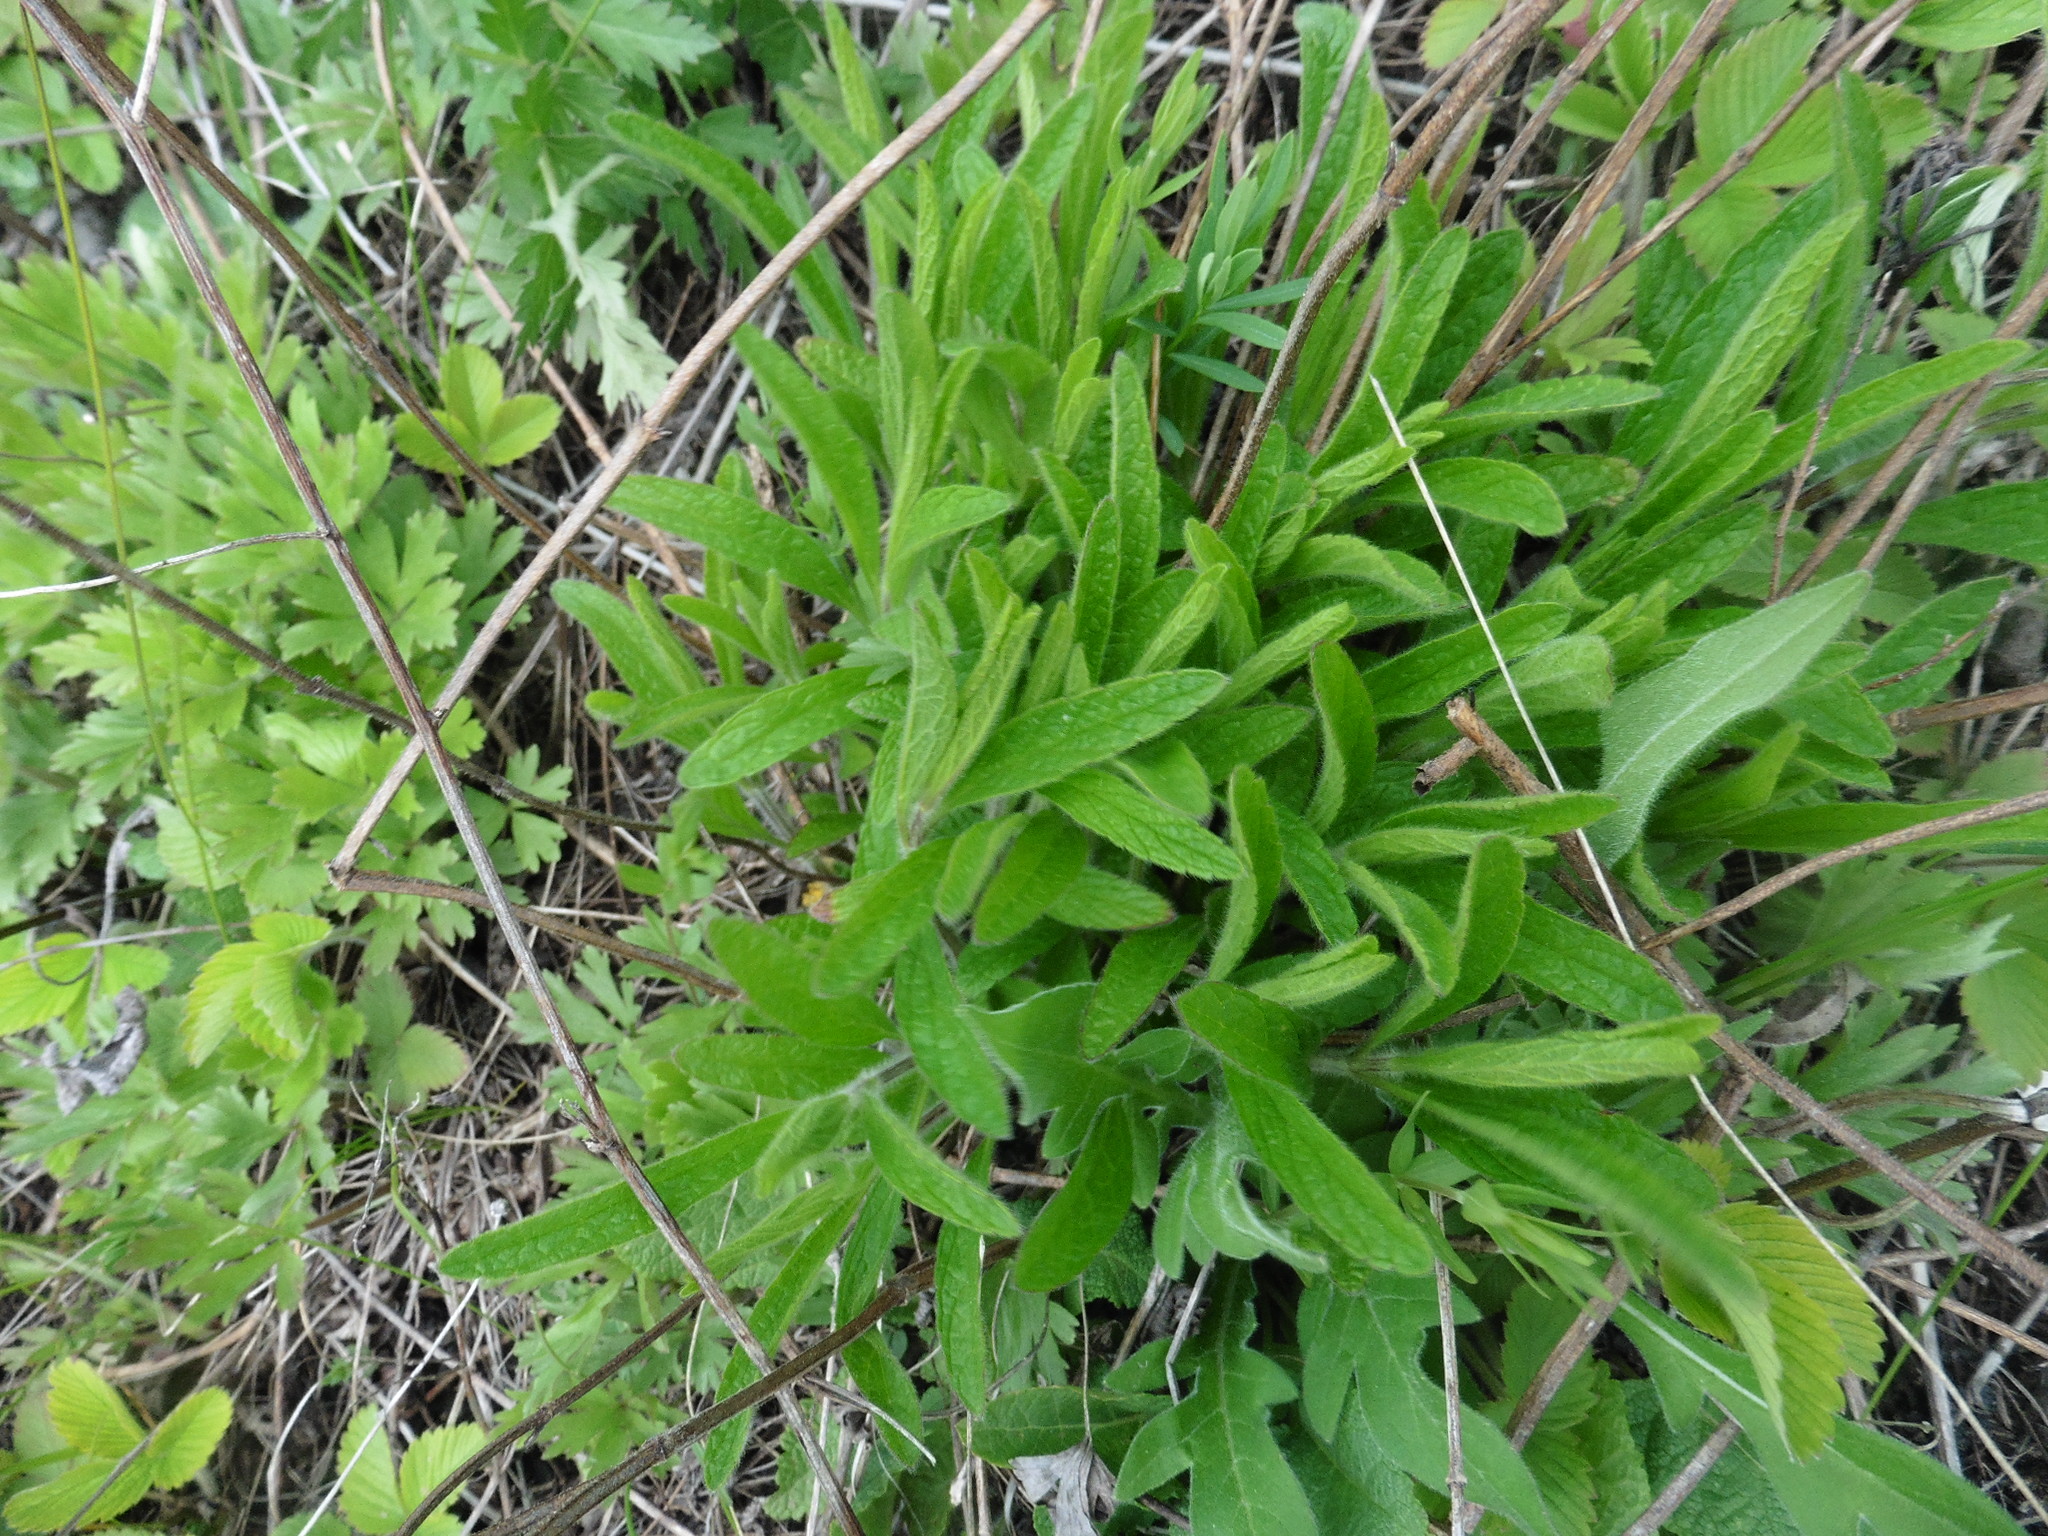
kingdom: Plantae
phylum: Tracheophyta
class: Magnoliopsida
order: Lamiales
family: Lamiaceae
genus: Stachys
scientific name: Stachys recta
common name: Perennial yellow-woundwort
